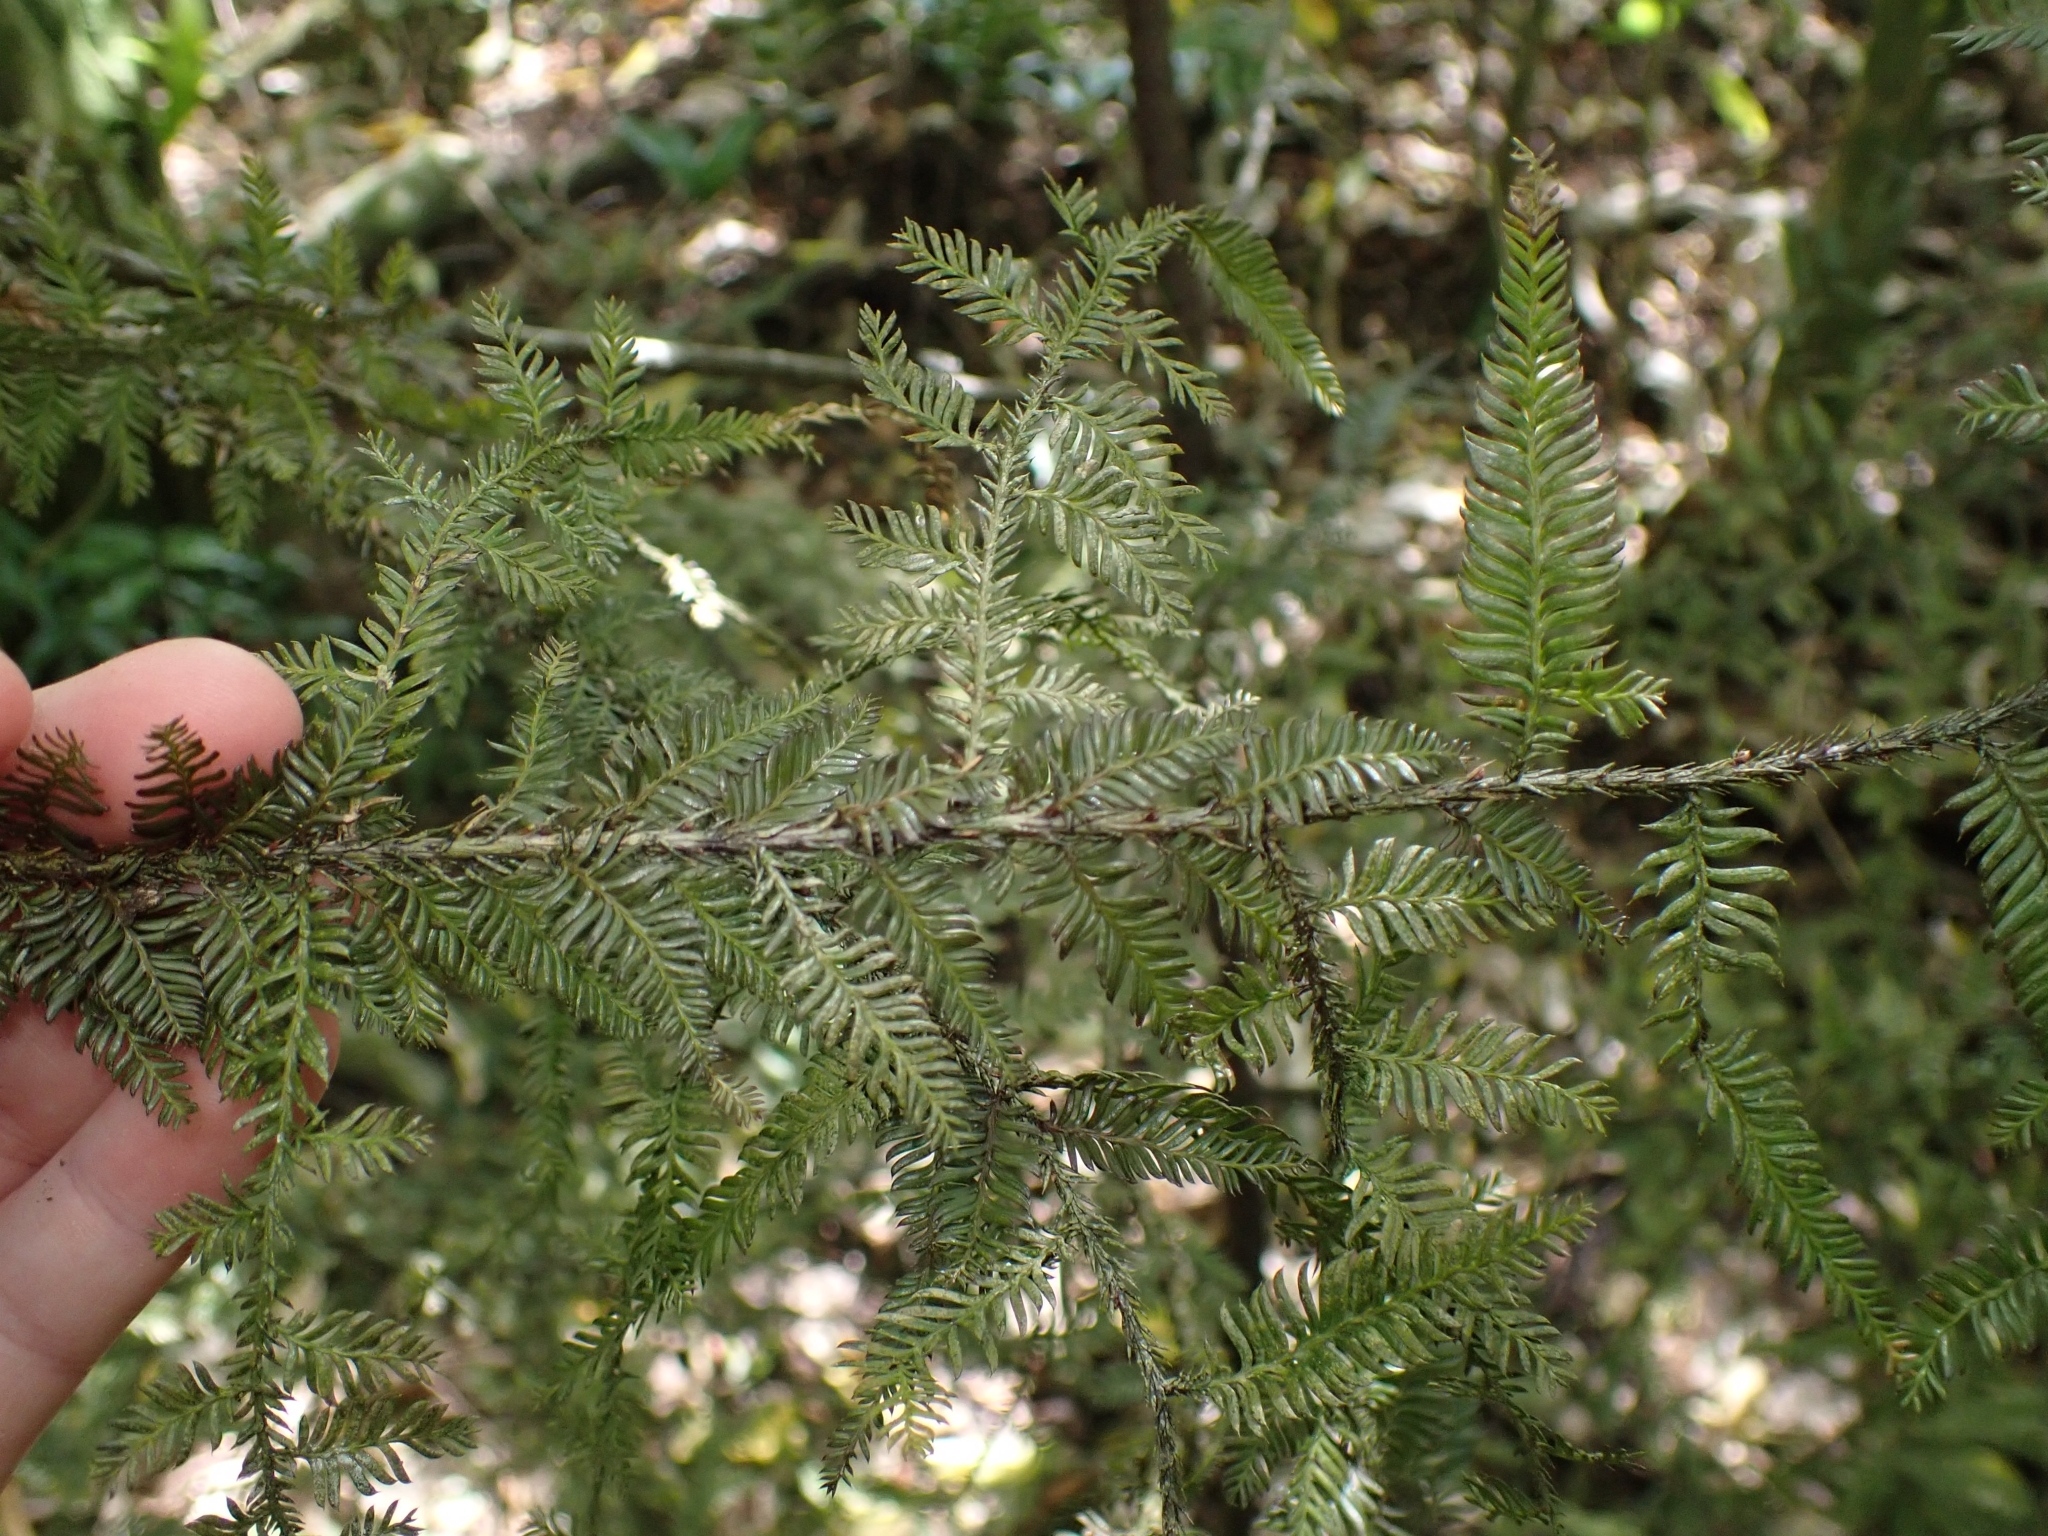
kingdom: Plantae
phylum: Tracheophyta
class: Pinopsida
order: Pinales
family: Podocarpaceae
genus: Dacrycarpus
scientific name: Dacrycarpus dacrydioides
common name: White pine
